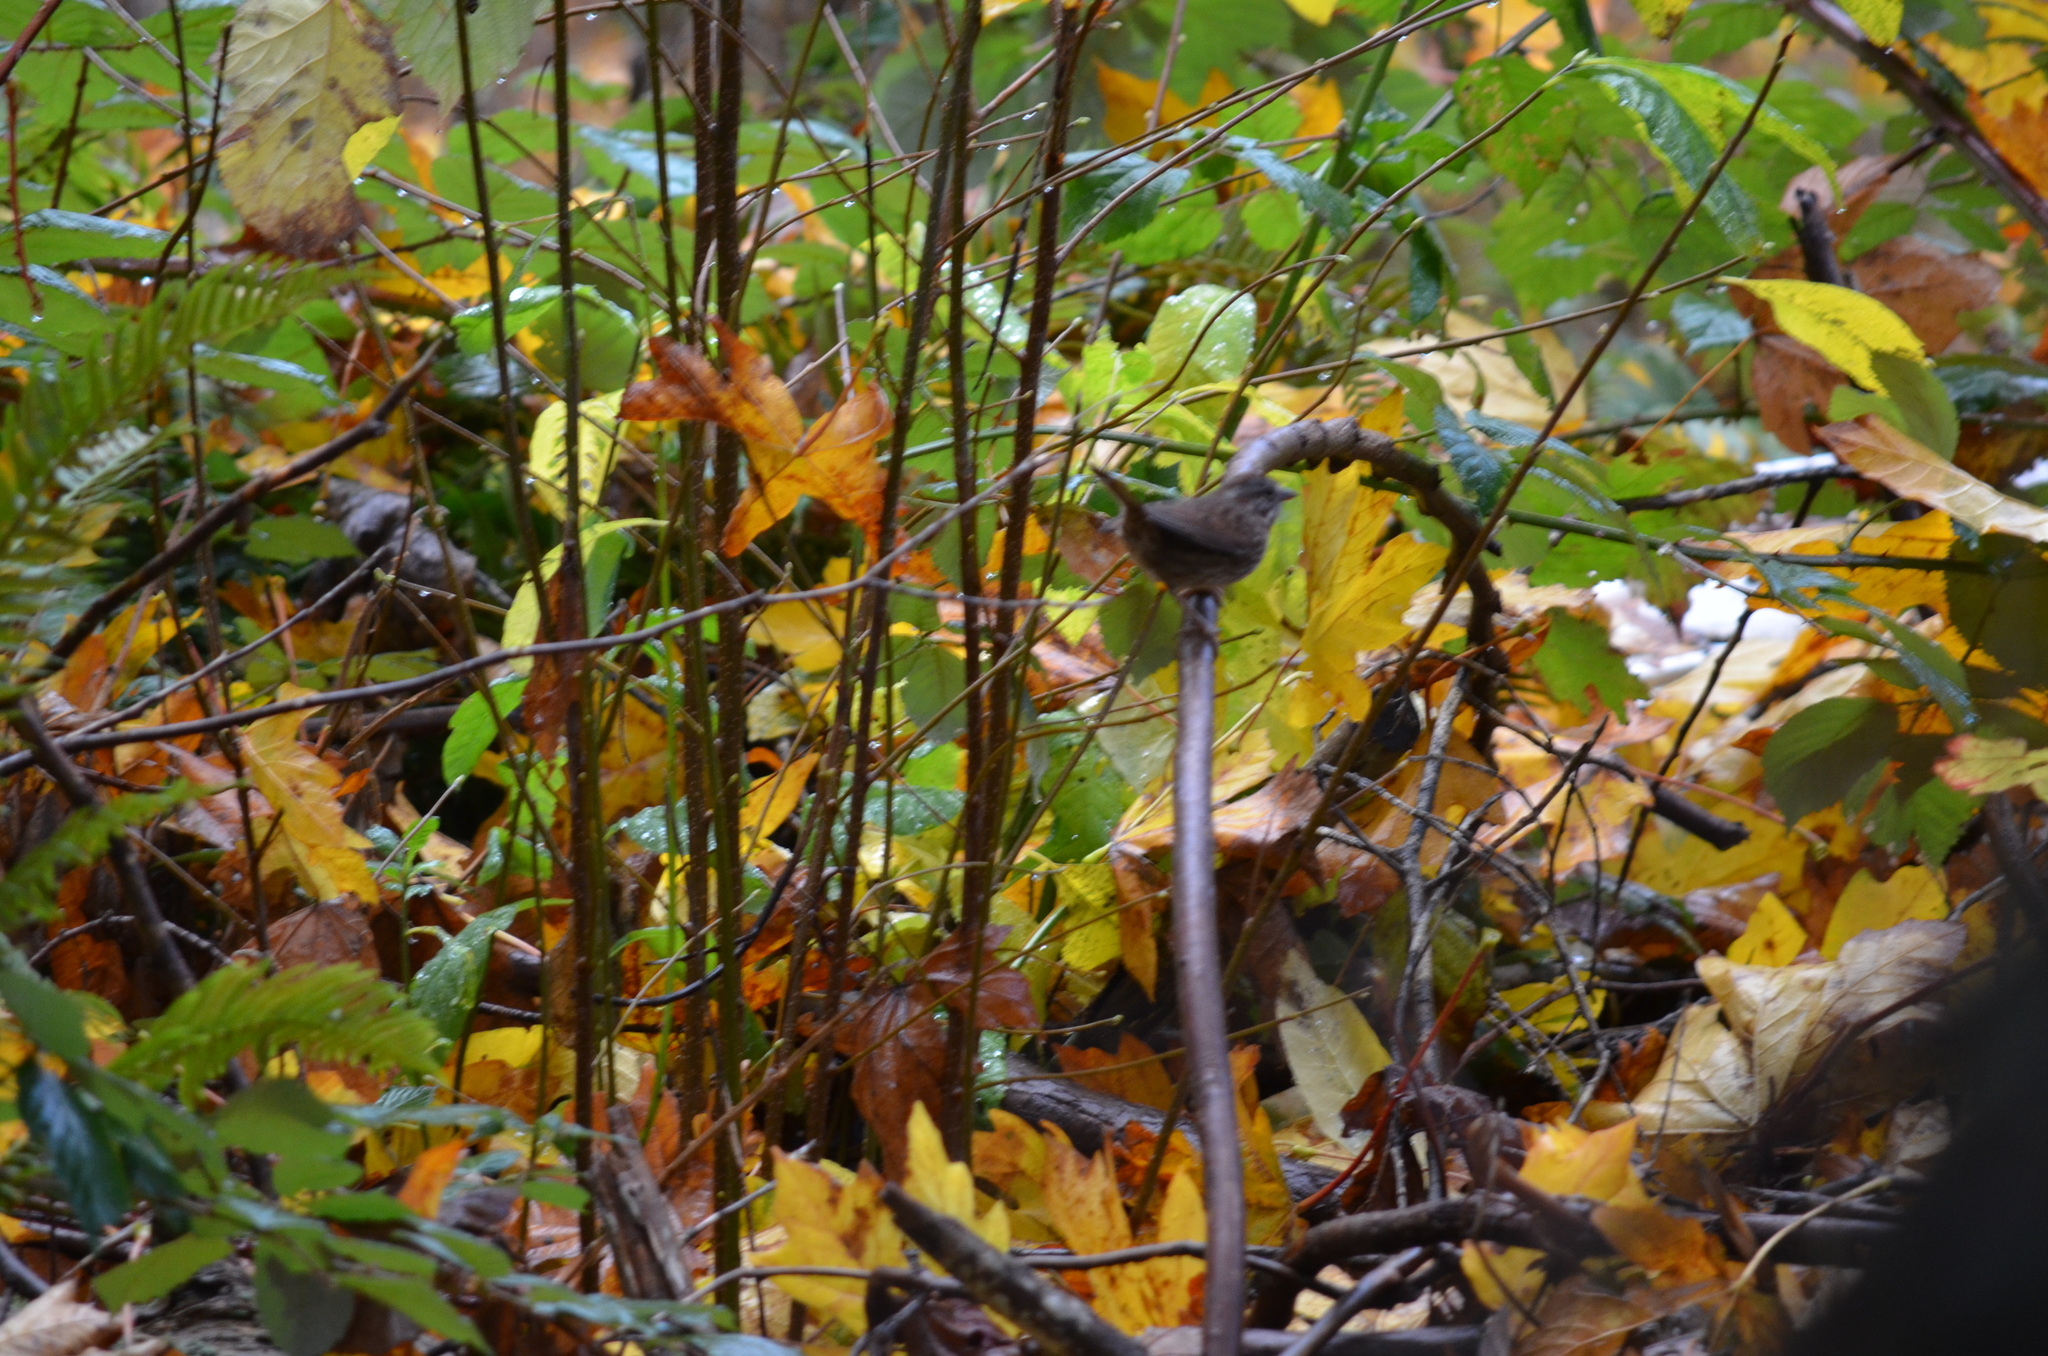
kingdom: Animalia
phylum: Chordata
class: Aves
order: Passeriformes
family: Passerellidae
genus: Melospiza
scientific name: Melospiza melodia
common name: Song sparrow
